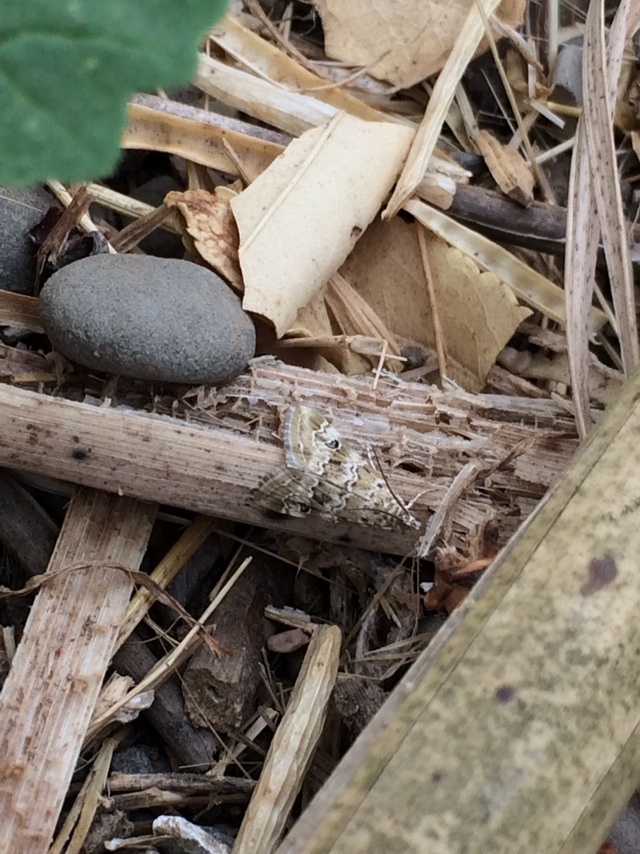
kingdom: Animalia
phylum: Arthropoda
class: Insecta
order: Lepidoptera
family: Crambidae
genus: Hellula
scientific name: Hellula rogatalis
